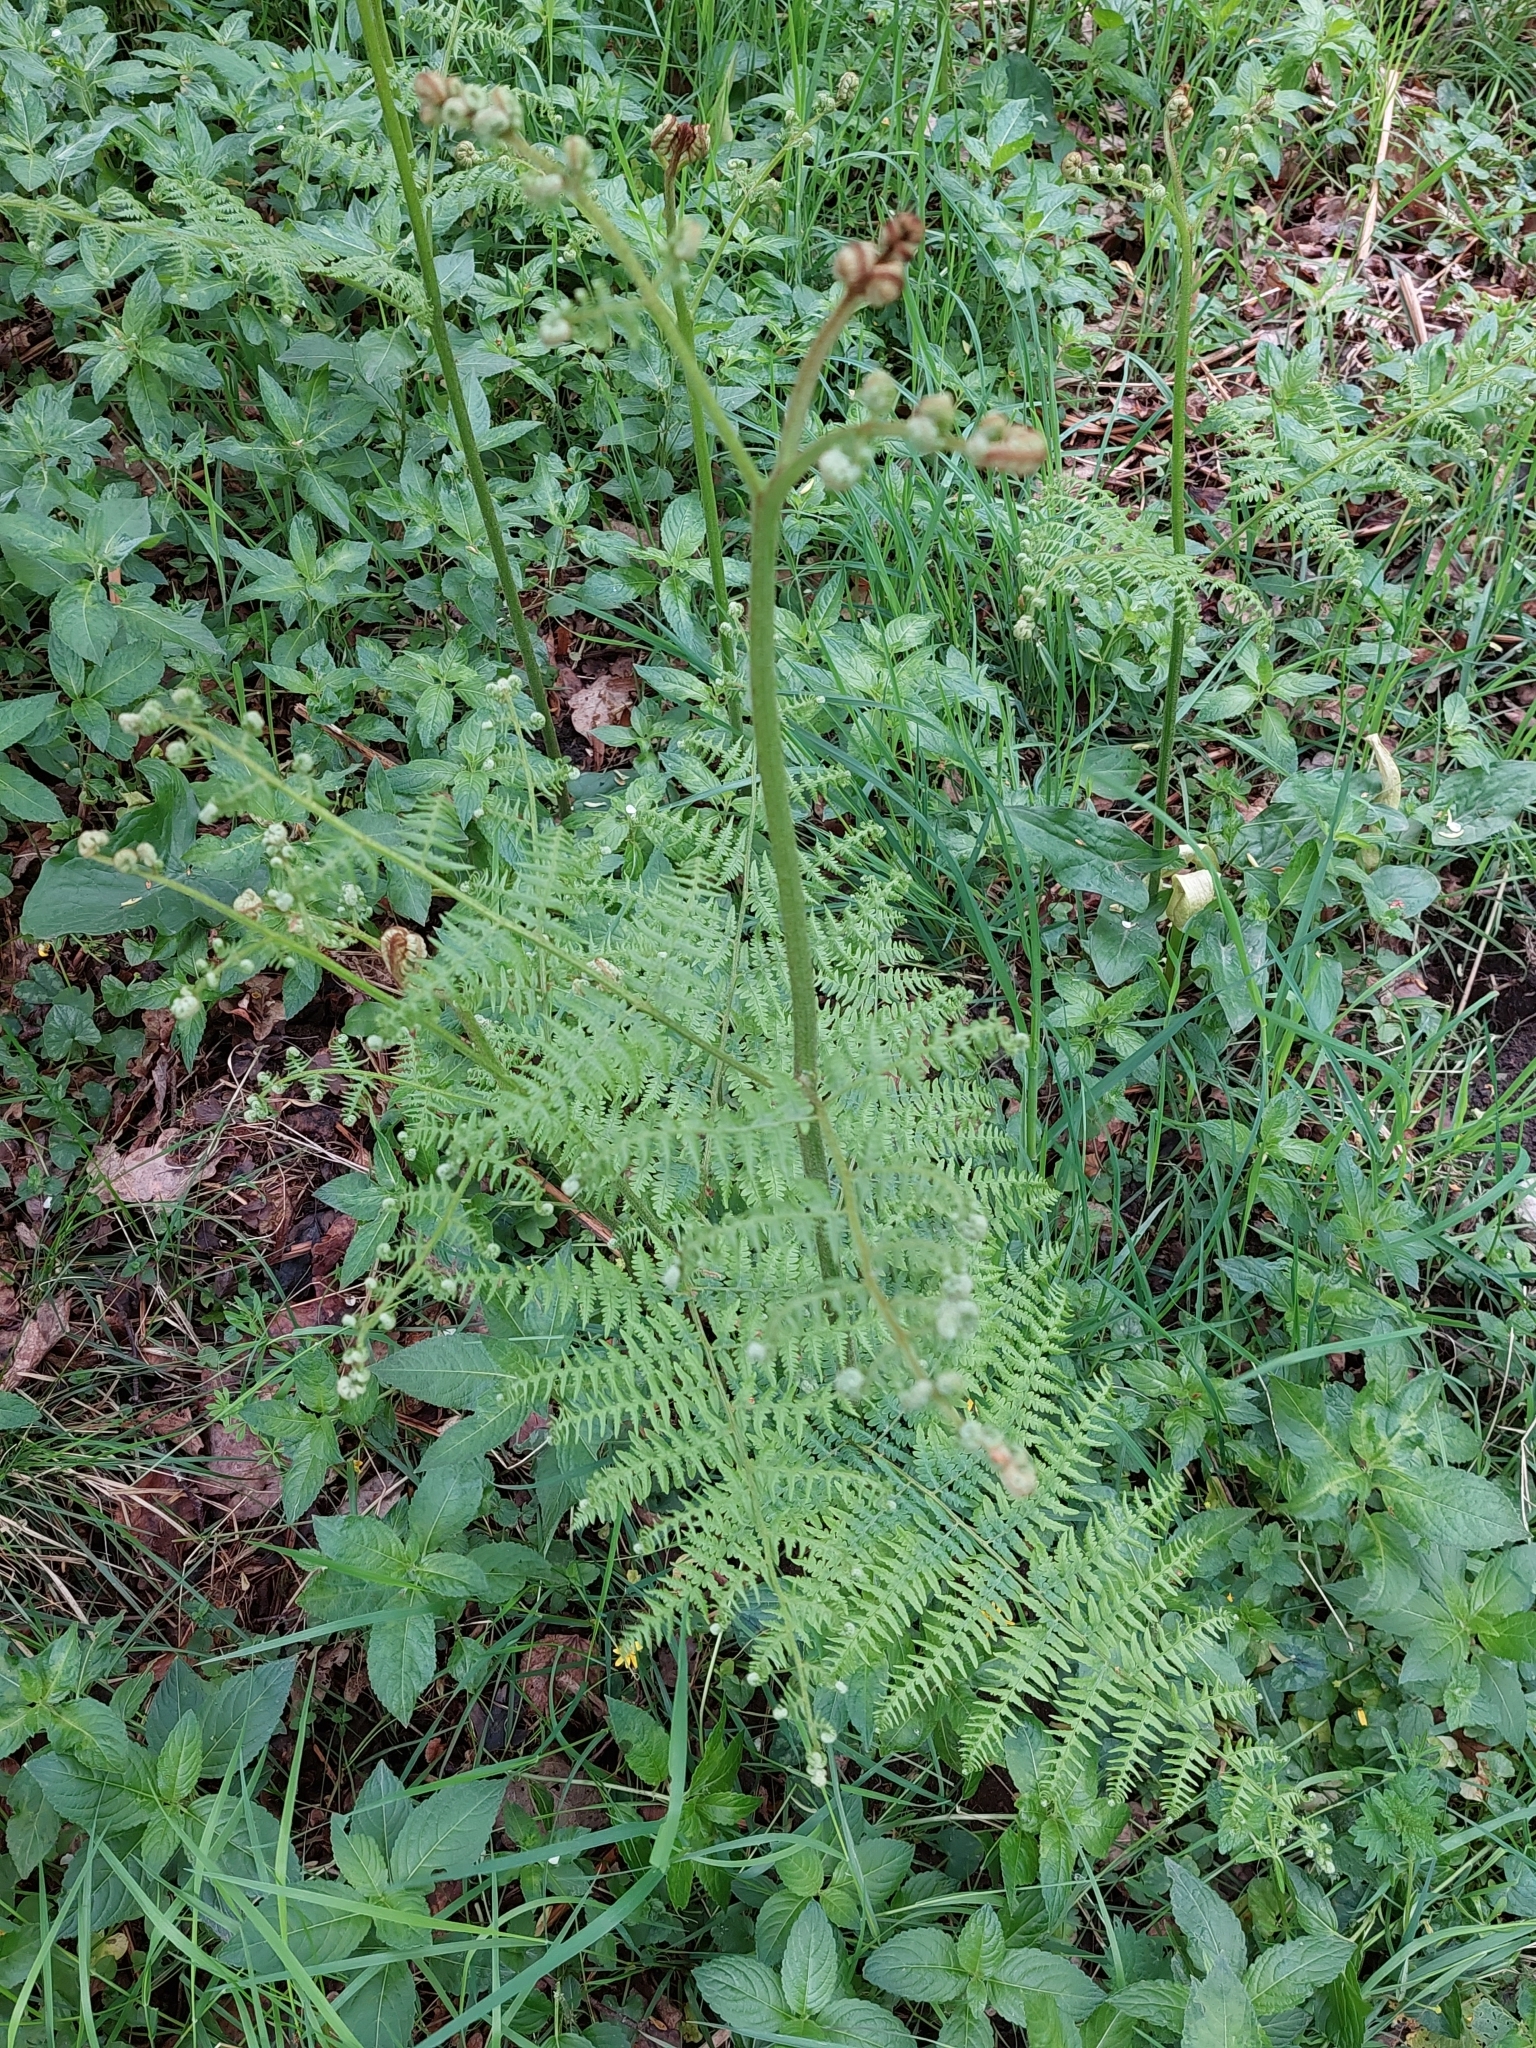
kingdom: Plantae
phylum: Tracheophyta
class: Polypodiopsida
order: Polypodiales
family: Dennstaedtiaceae
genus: Pteridium
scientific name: Pteridium aquilinum
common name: Bracken
